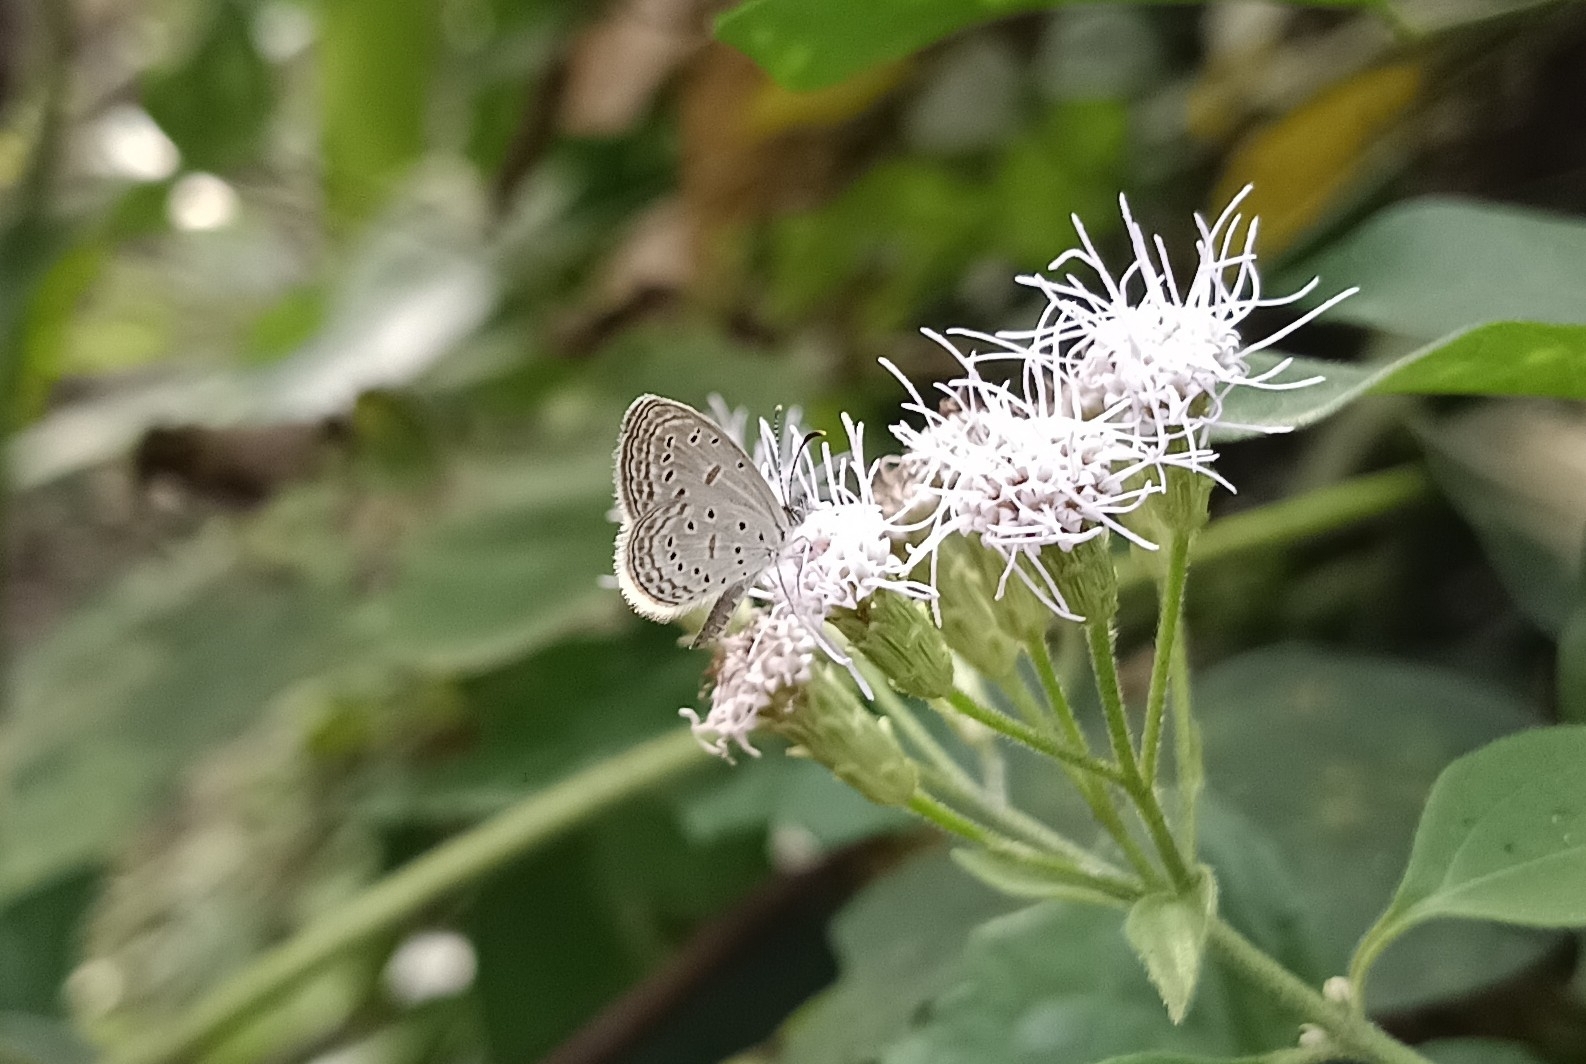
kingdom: Animalia
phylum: Arthropoda
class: Insecta
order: Lepidoptera
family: Lycaenidae
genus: Zizula
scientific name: Zizula hylax
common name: Gaika blue
